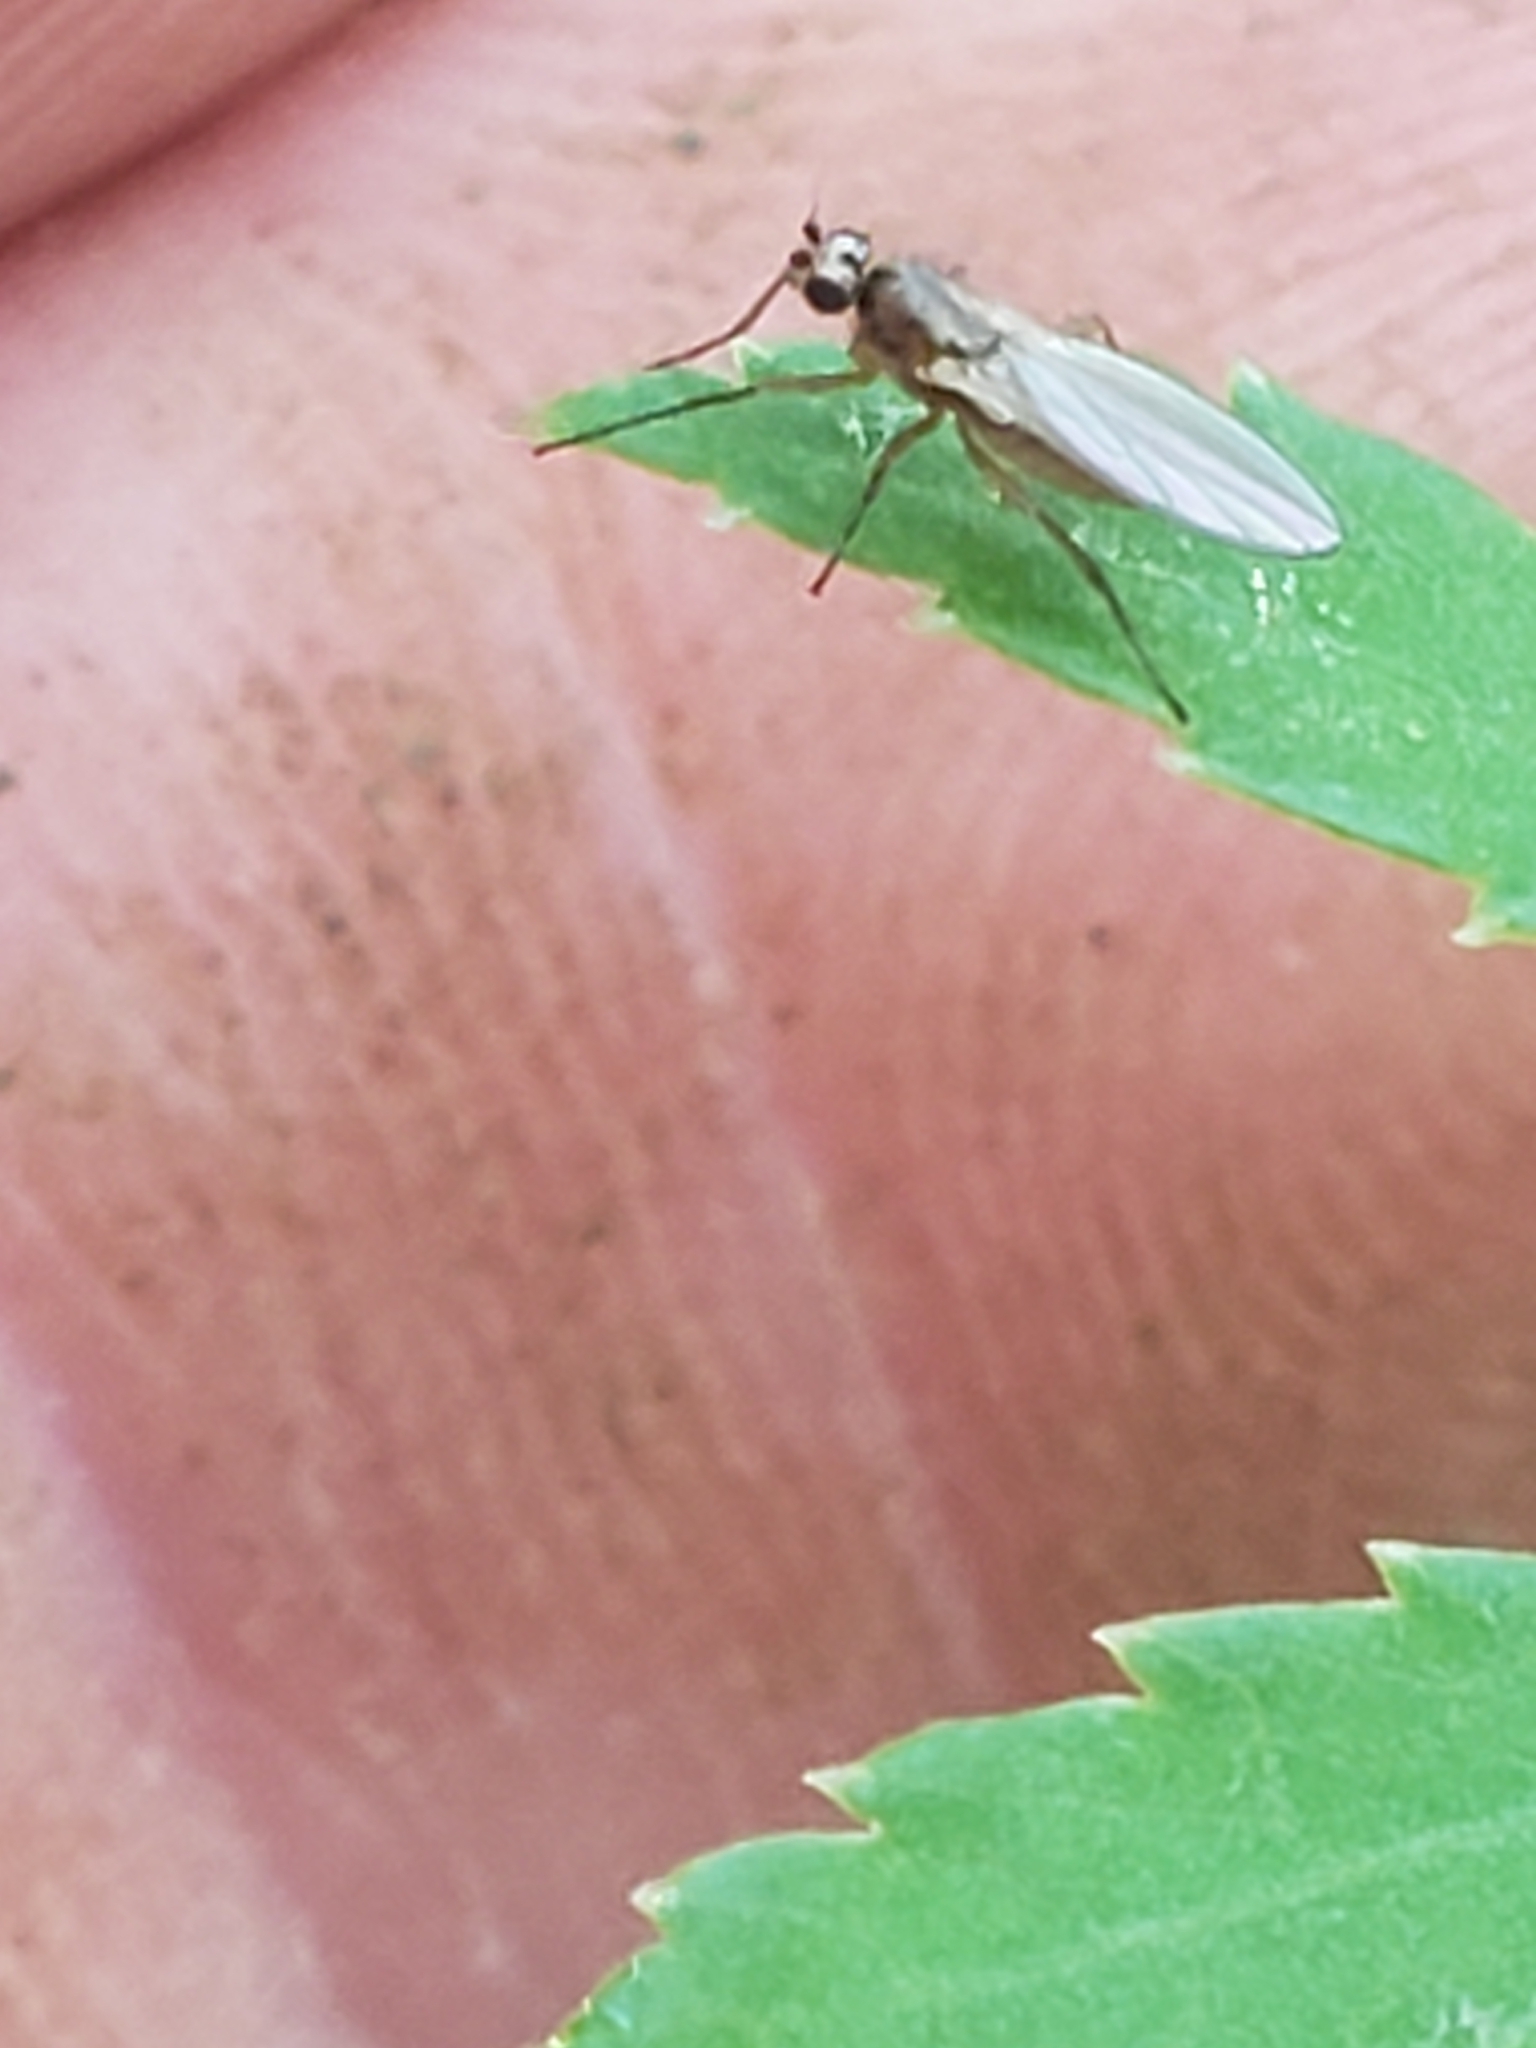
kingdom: Animalia
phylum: Arthropoda
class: Insecta
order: Diptera
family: Lonchopteridae
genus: Lonchoptera
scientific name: Lonchoptera bifurcata
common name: Spear-winged fly
